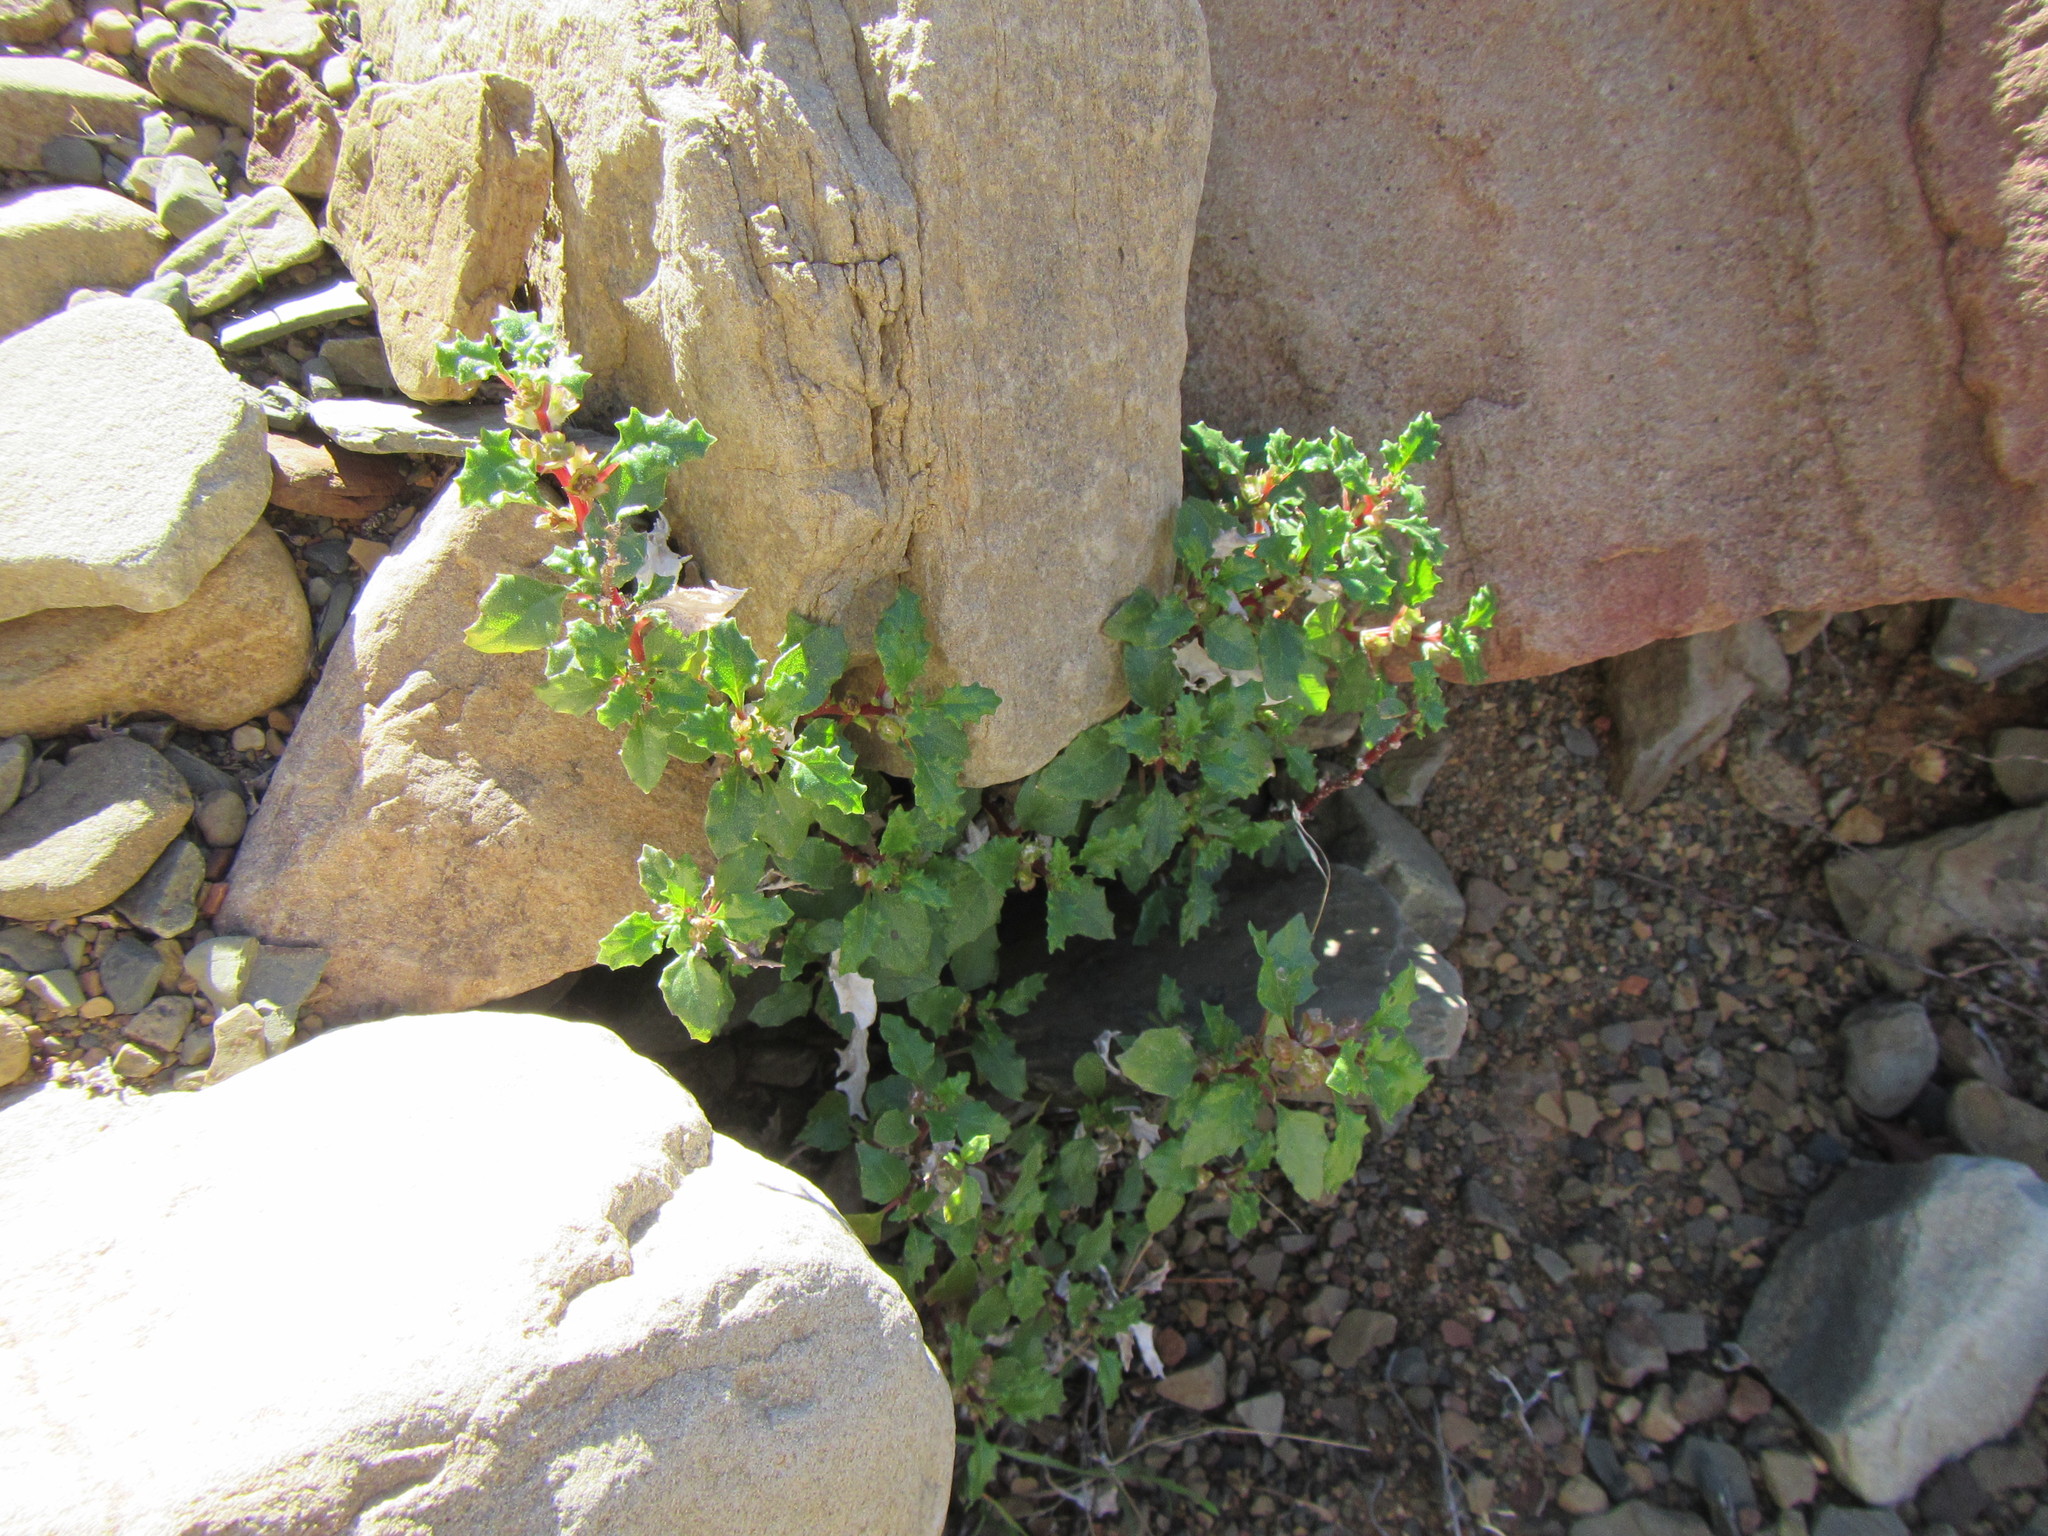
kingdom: Plantae
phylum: Tracheophyta
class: Magnoliopsida
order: Rosales
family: Urticaceae
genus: Forsskaolea
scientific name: Forsskaolea candida
